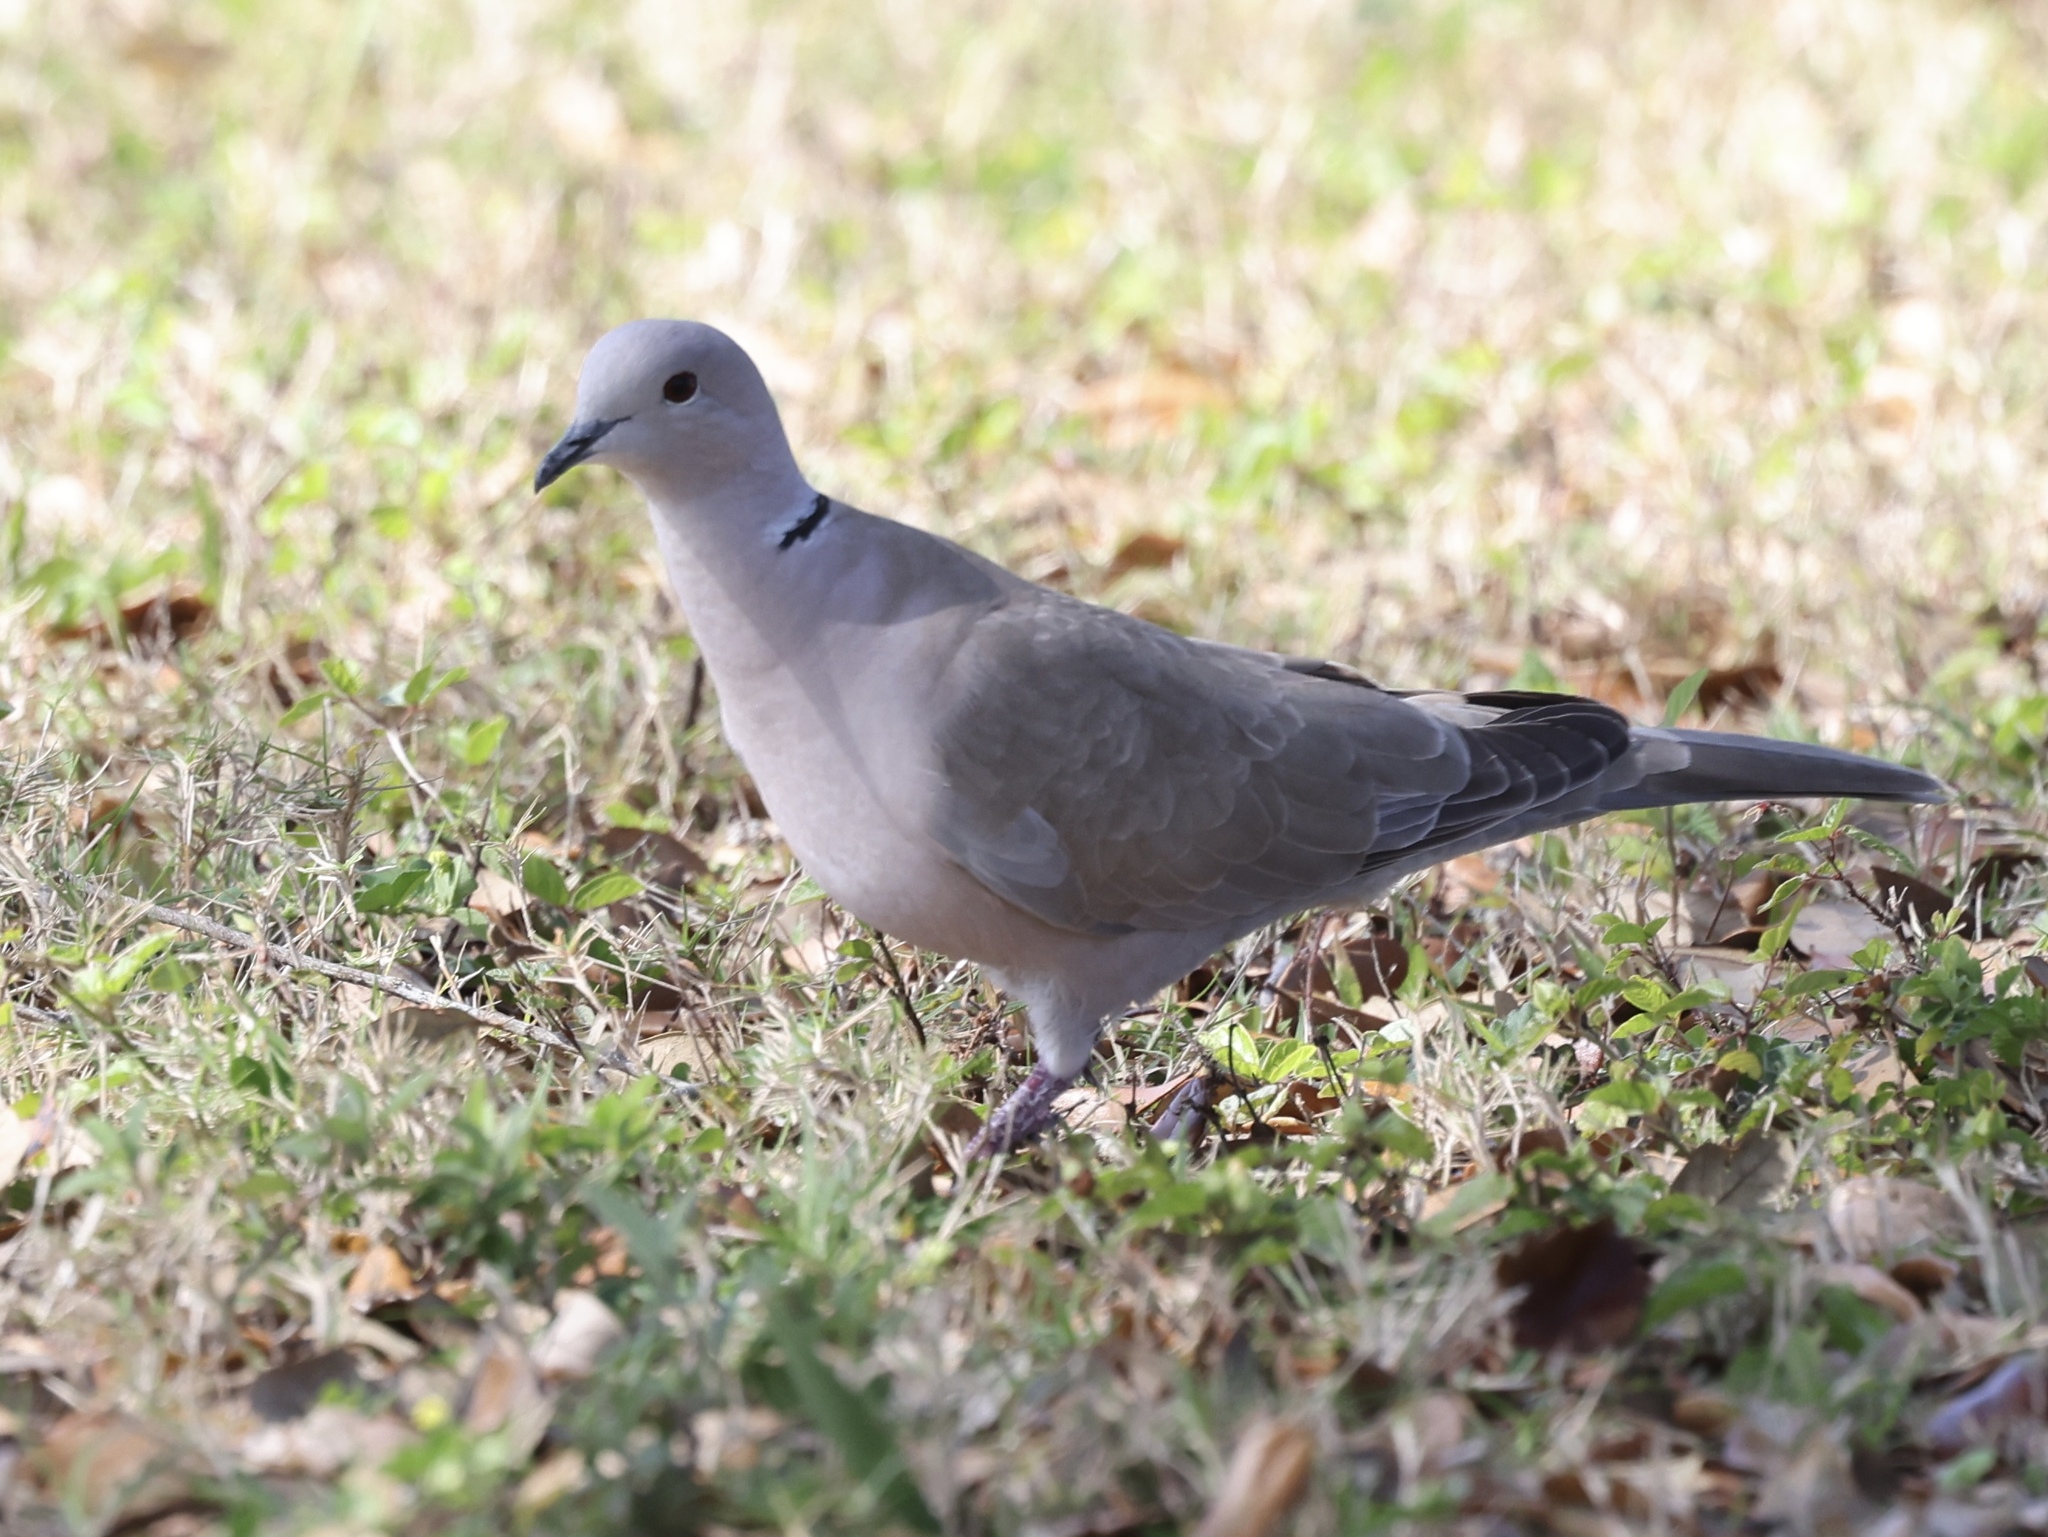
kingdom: Animalia
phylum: Chordata
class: Aves
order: Columbiformes
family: Columbidae
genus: Streptopelia
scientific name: Streptopelia decaocto
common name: Eurasian collared dove
